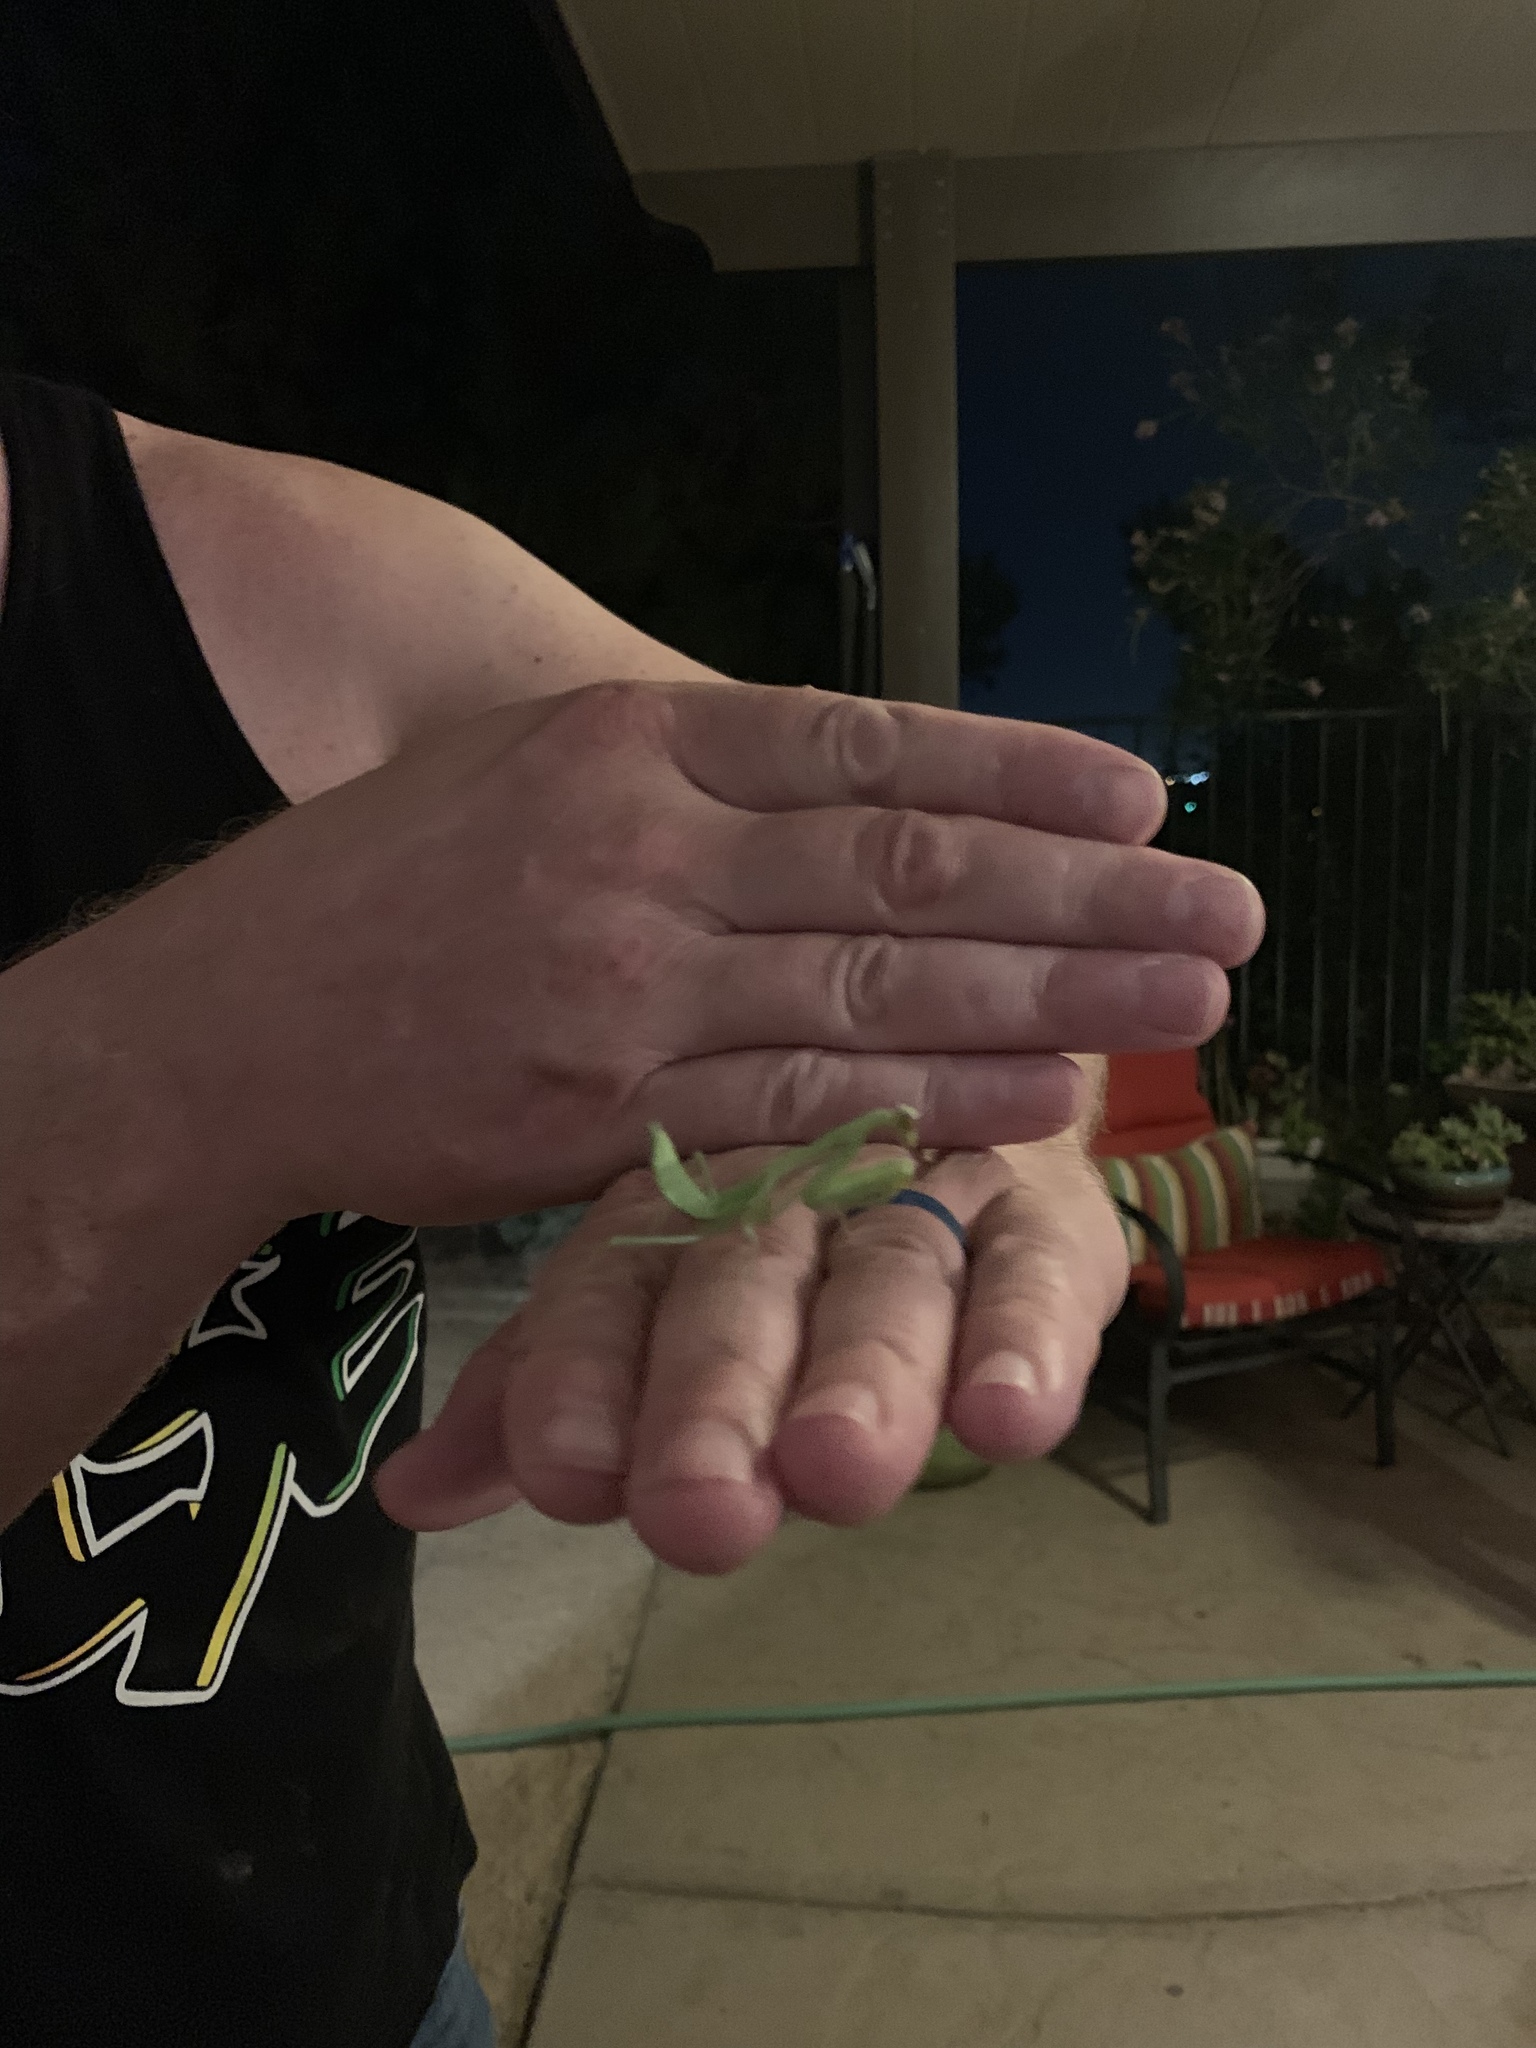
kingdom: Animalia
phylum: Arthropoda
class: Insecta
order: Mantodea
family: Mantidae
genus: Stagmomantis
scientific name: Stagmomantis limbata
